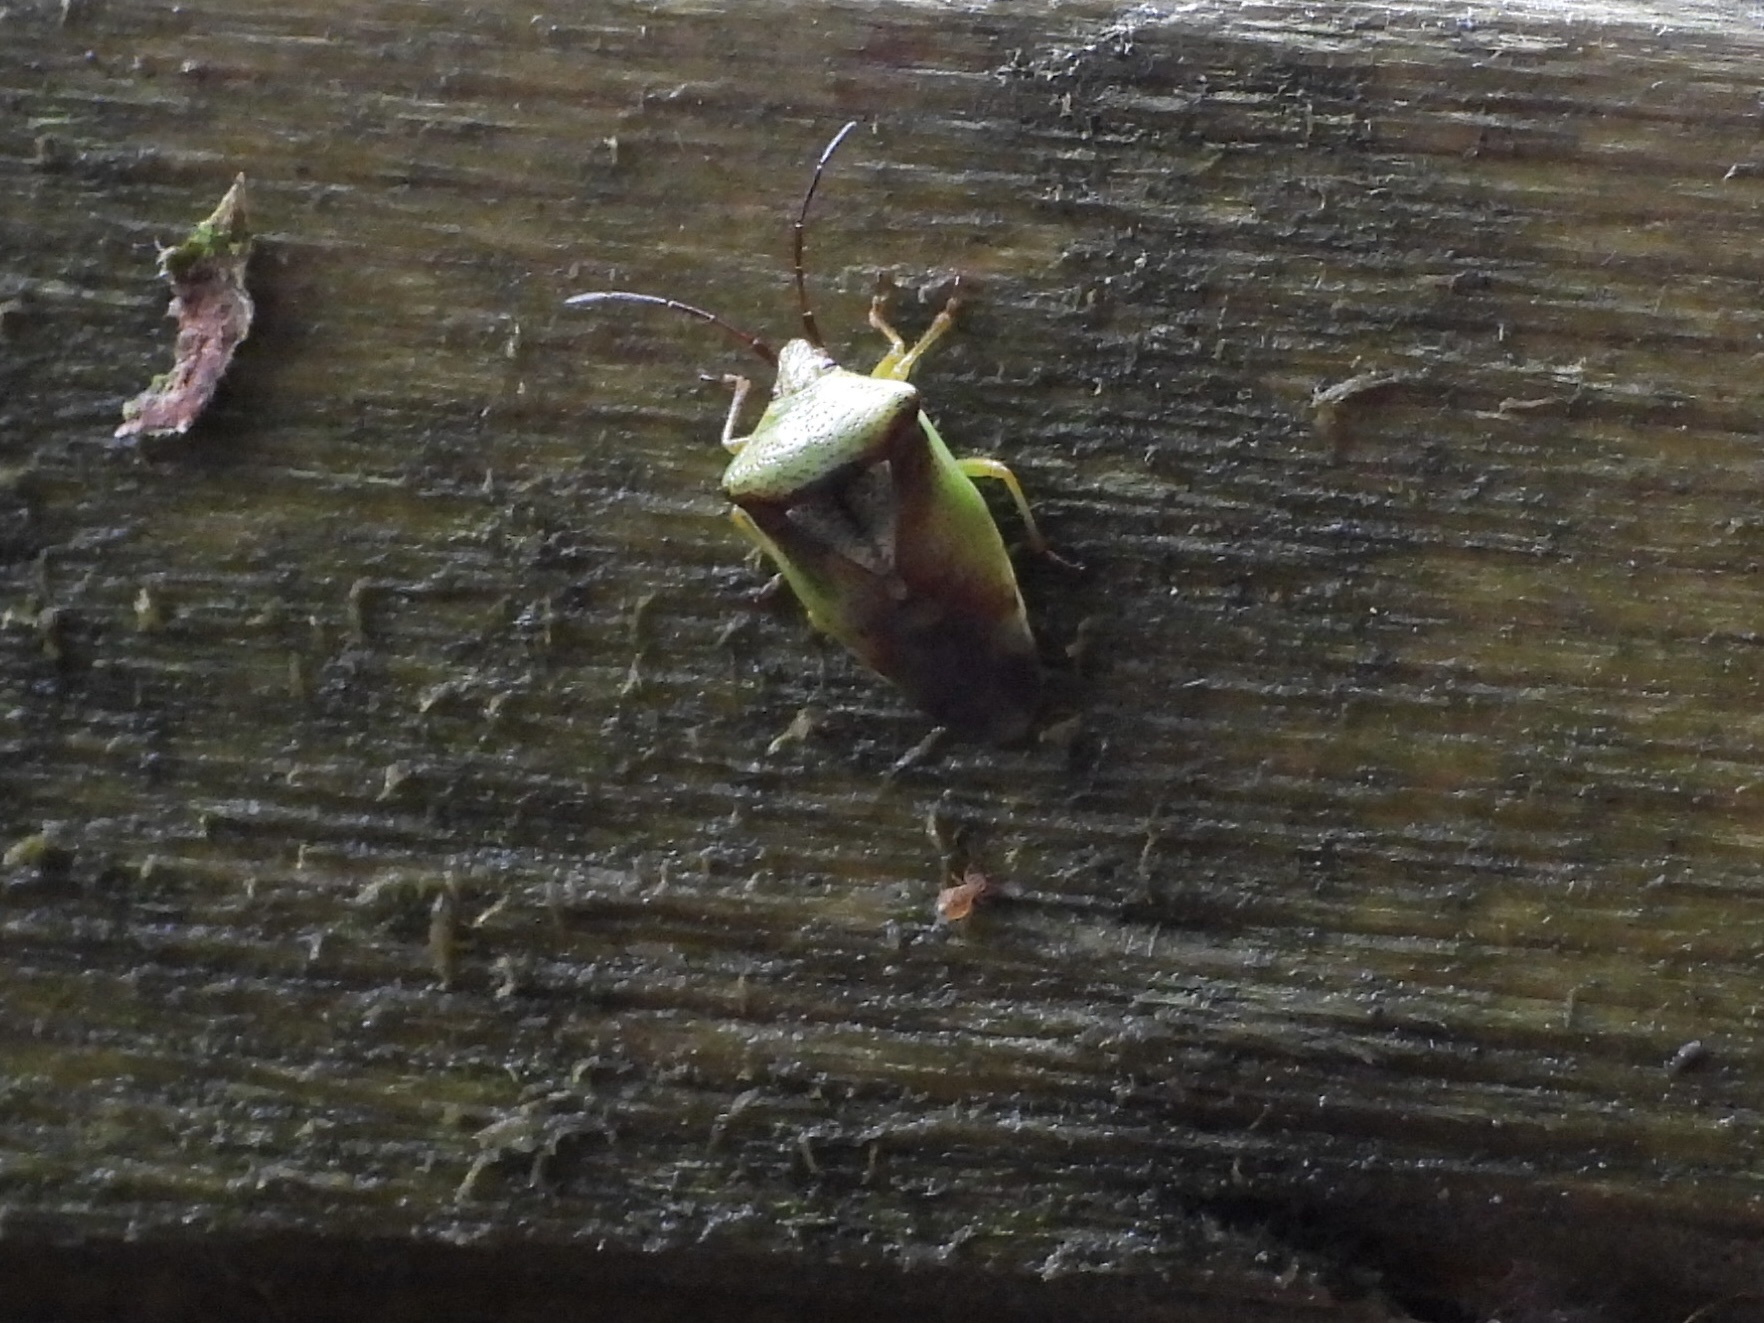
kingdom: Animalia
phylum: Arthropoda
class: Insecta
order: Hemiptera
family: Acanthosomatidae
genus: Elasmostethus
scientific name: Elasmostethus cruciatus
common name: Red-cross shield bug
